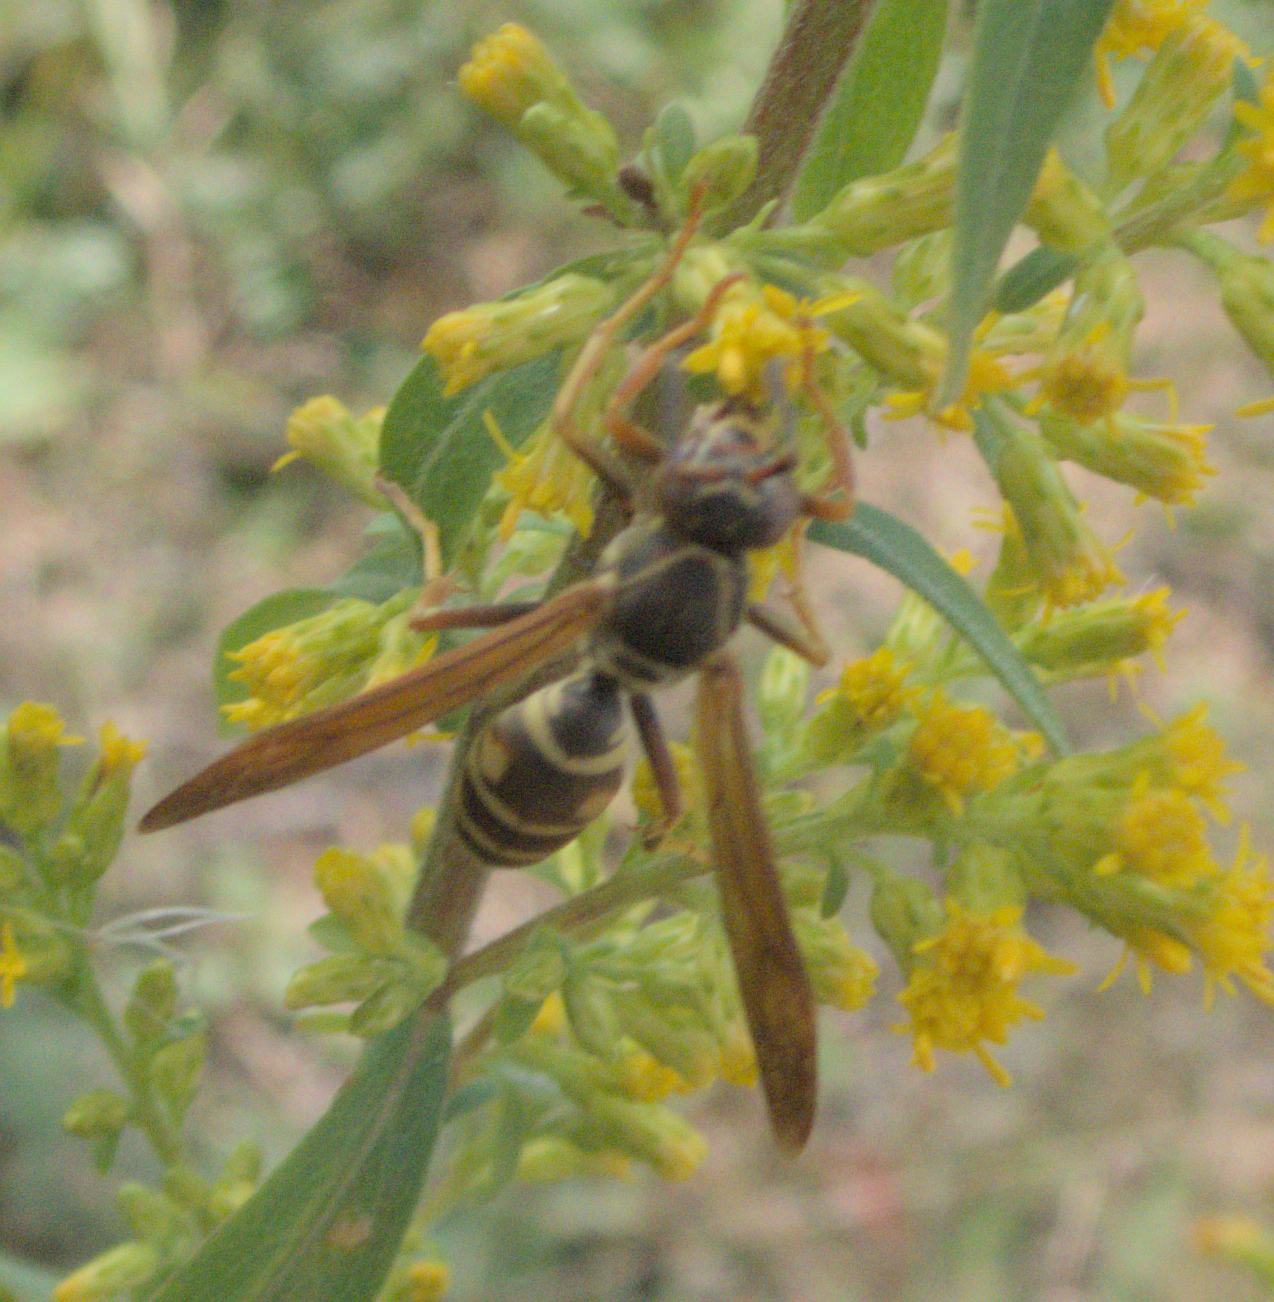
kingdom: Animalia
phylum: Arthropoda
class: Insecta
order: Hymenoptera
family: Eumenidae
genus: Polistes
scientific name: Polistes fuscatus
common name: Dark paper wasp
